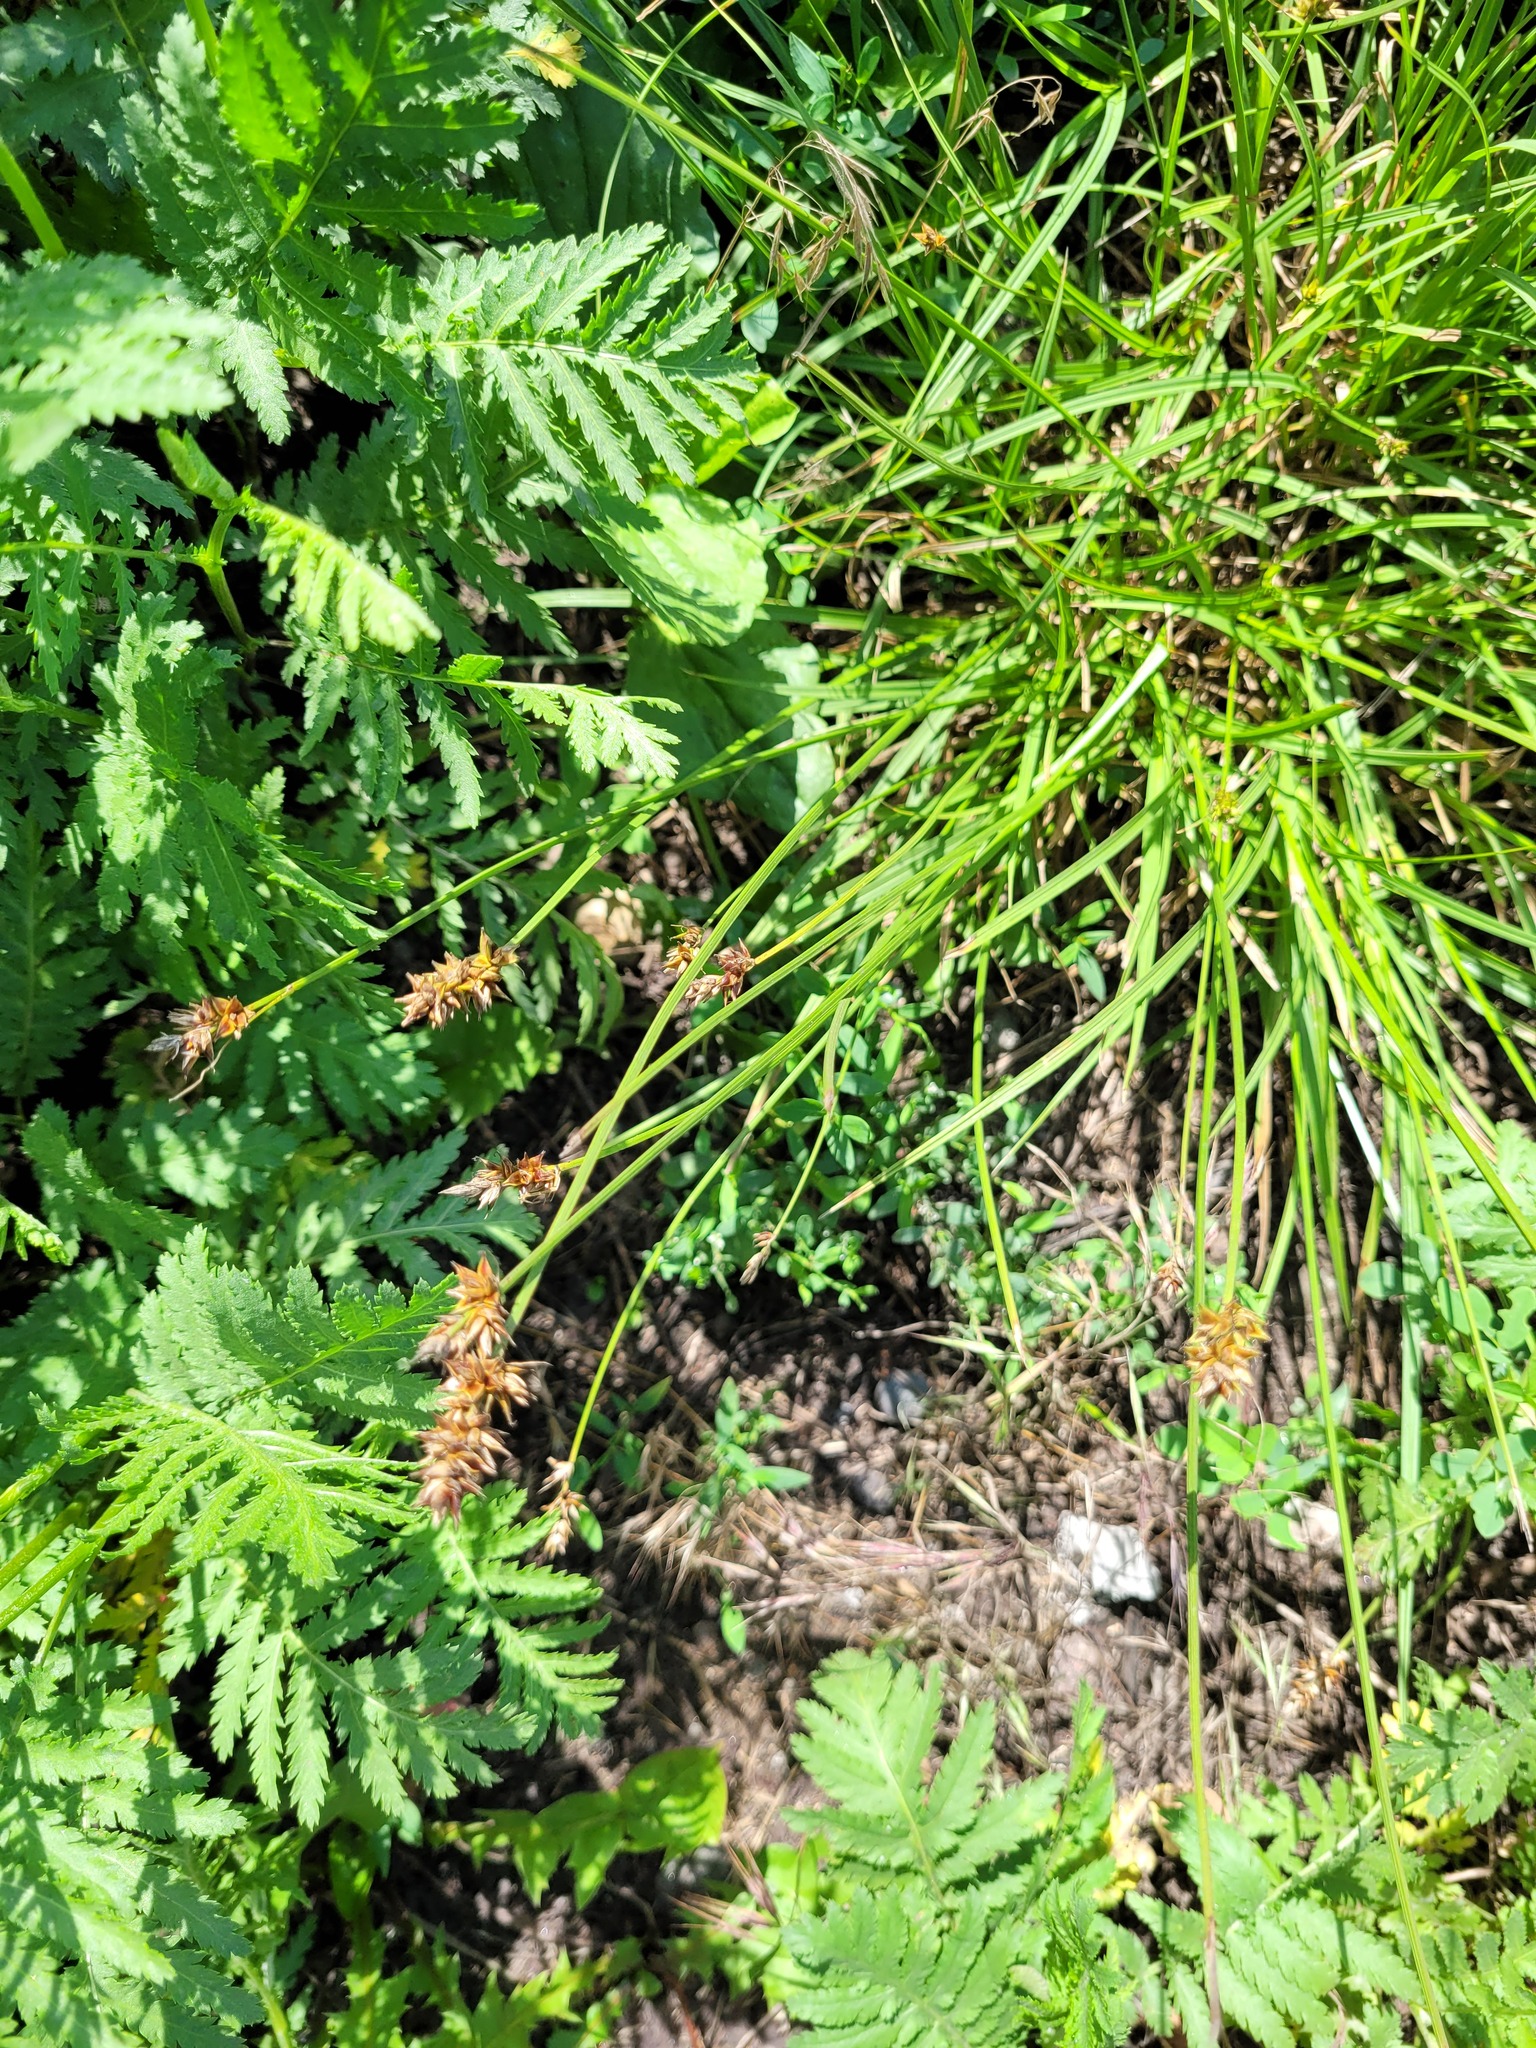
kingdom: Plantae
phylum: Tracheophyta
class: Liliopsida
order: Poales
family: Cyperaceae
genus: Carex
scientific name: Carex spicata
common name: Spiked sedge
